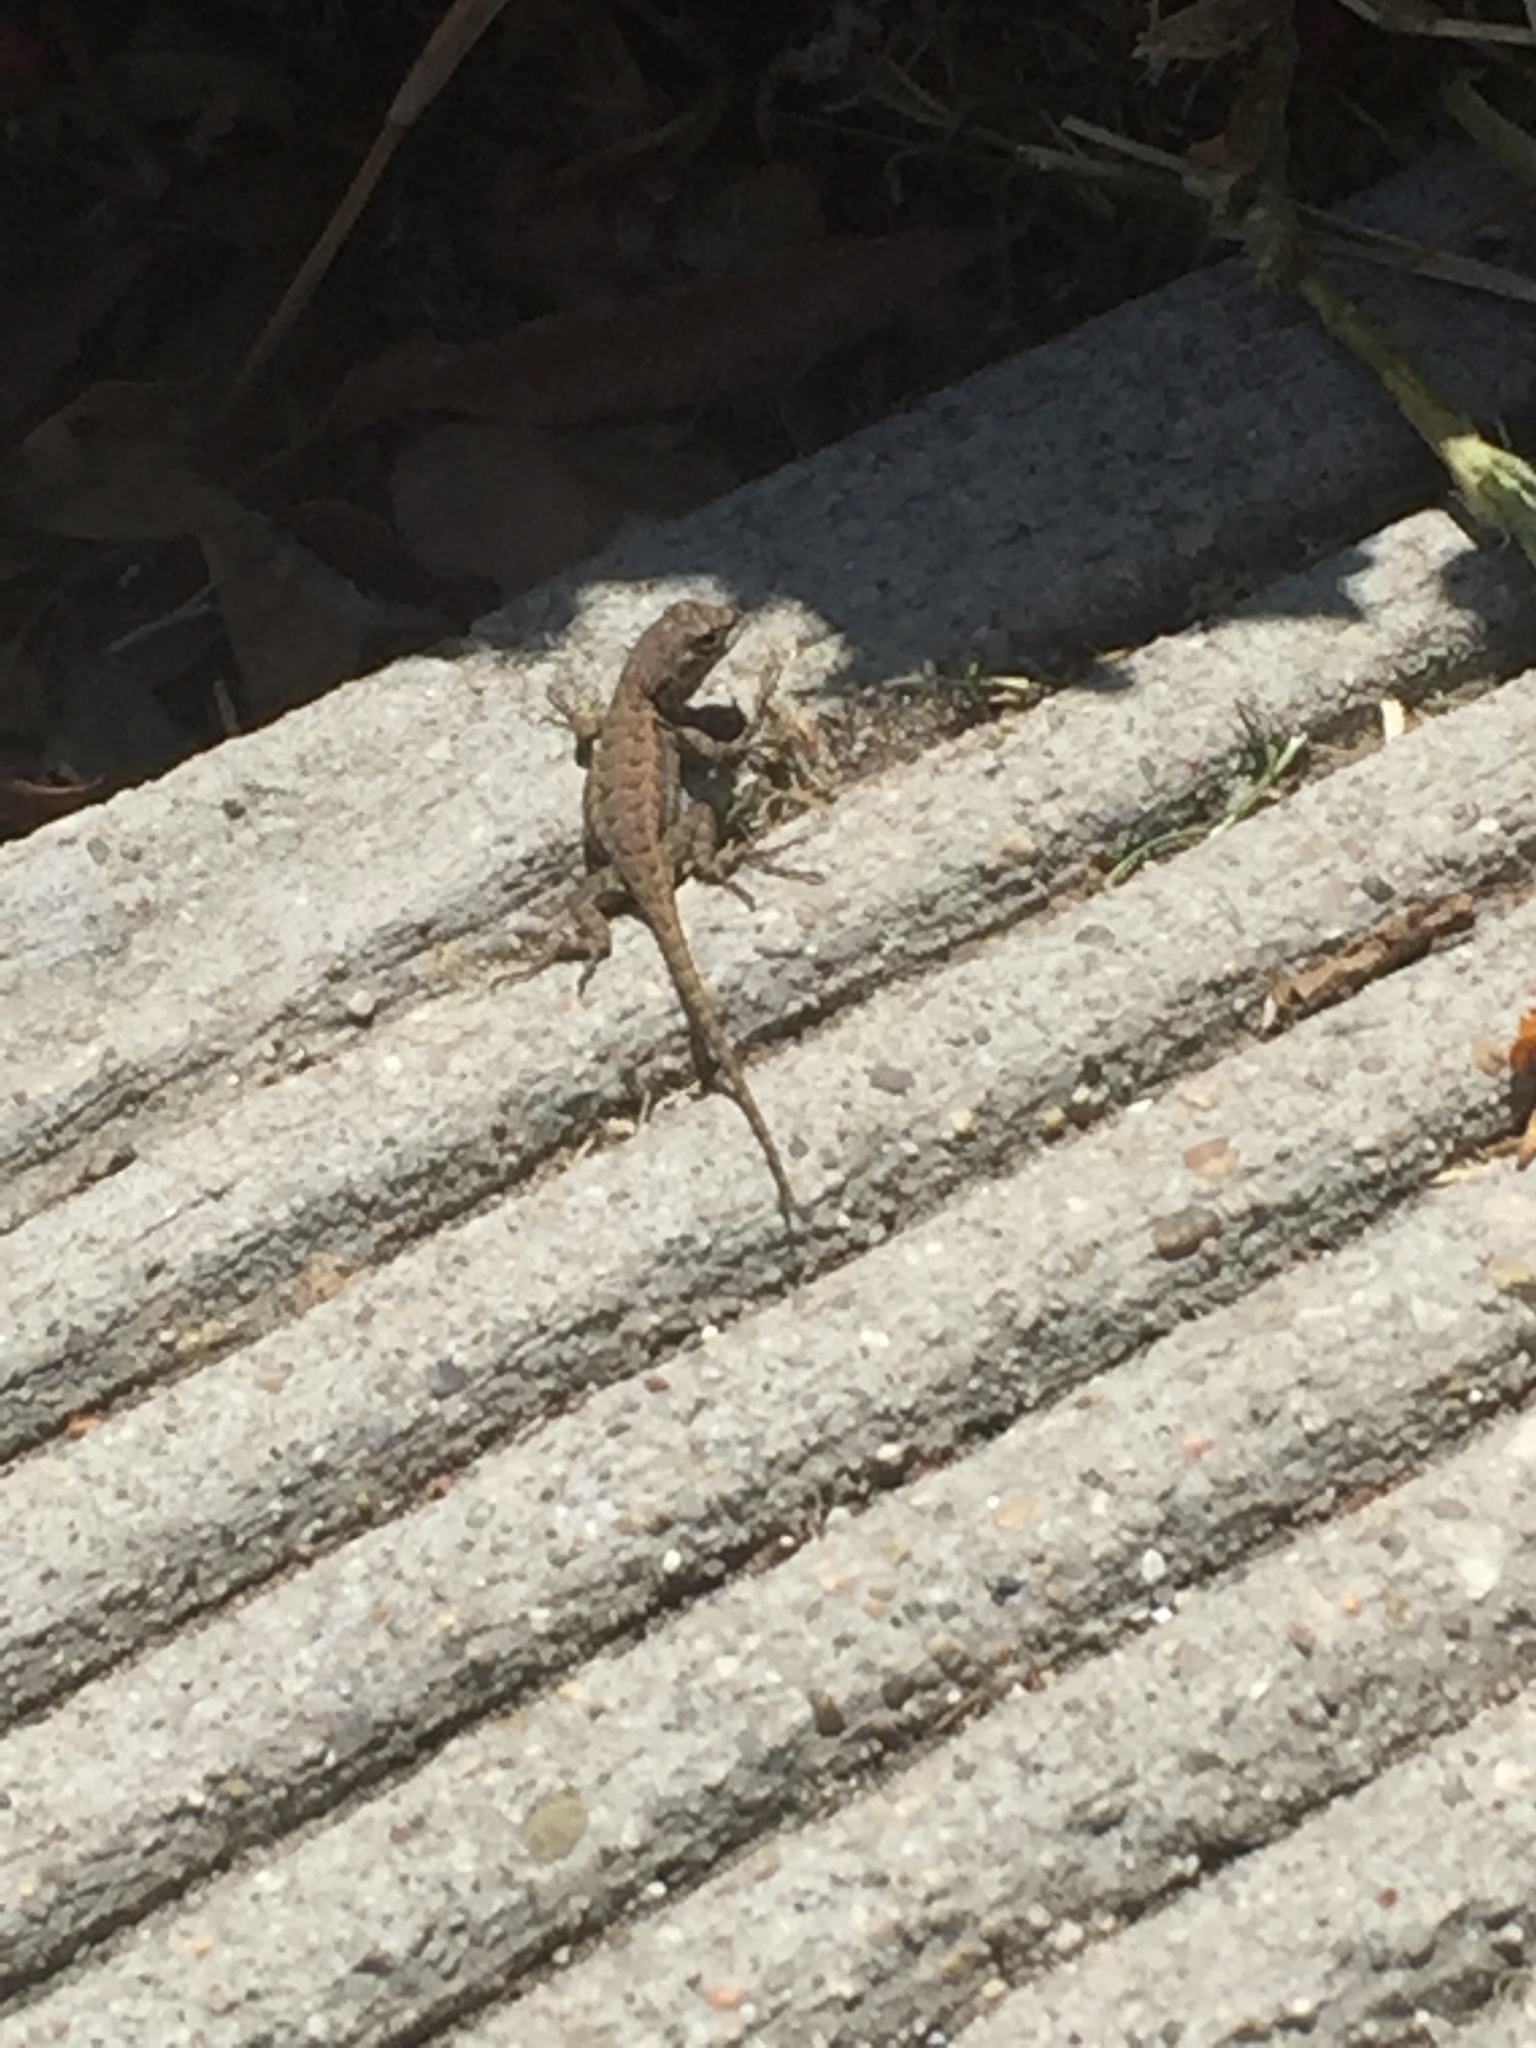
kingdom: Animalia
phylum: Chordata
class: Squamata
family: Phrynosomatidae
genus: Sceloporus
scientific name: Sceloporus occidentalis
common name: Western fence lizard
